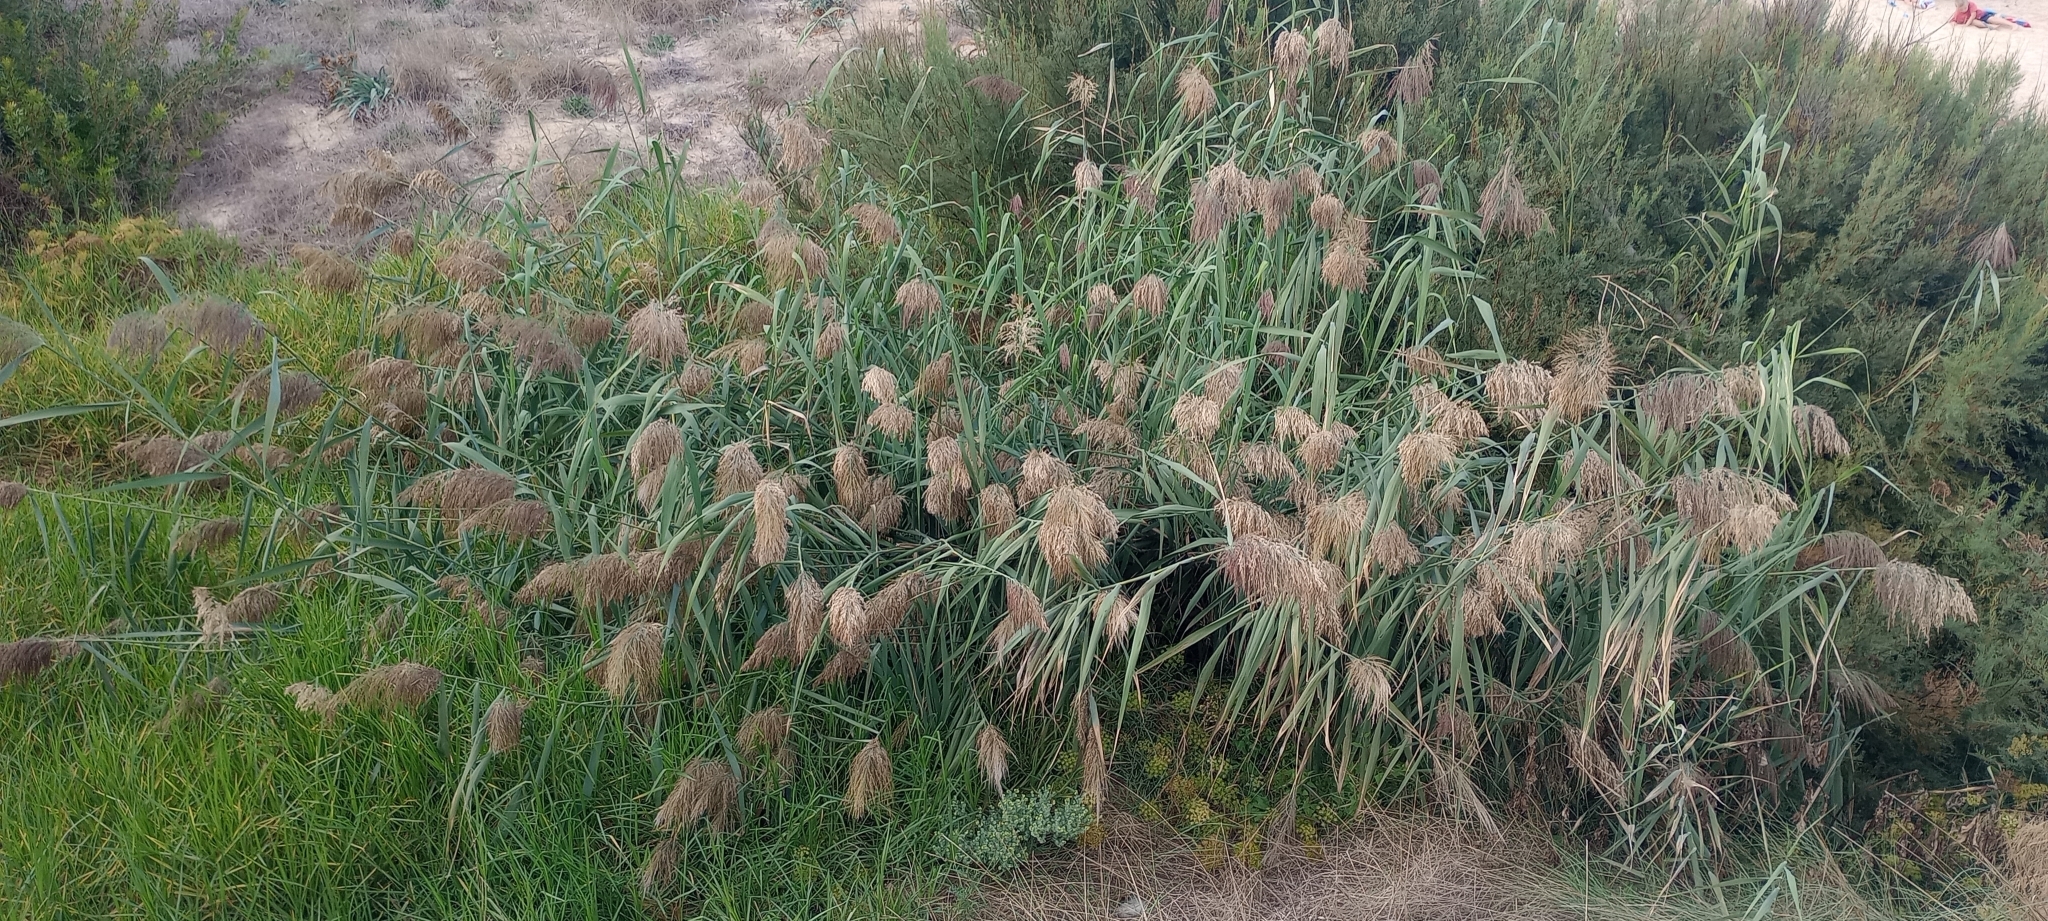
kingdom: Plantae
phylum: Tracheophyta
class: Liliopsida
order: Poales
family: Poaceae
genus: Phragmites
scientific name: Phragmites australis
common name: Common reed
